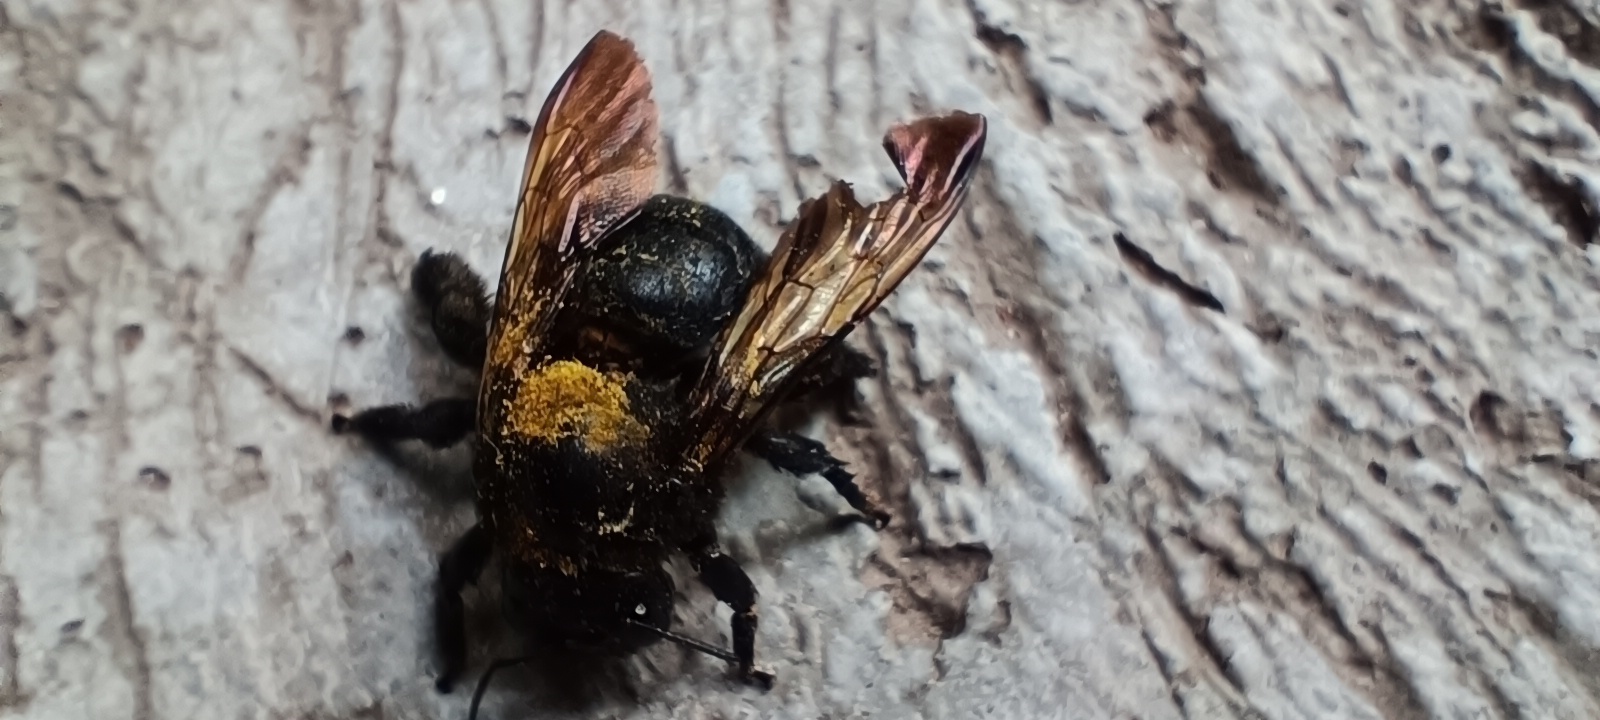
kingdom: Animalia
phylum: Arthropoda
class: Insecta
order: Hymenoptera
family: Apidae
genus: Xylocopa
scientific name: Xylocopa sonorina
